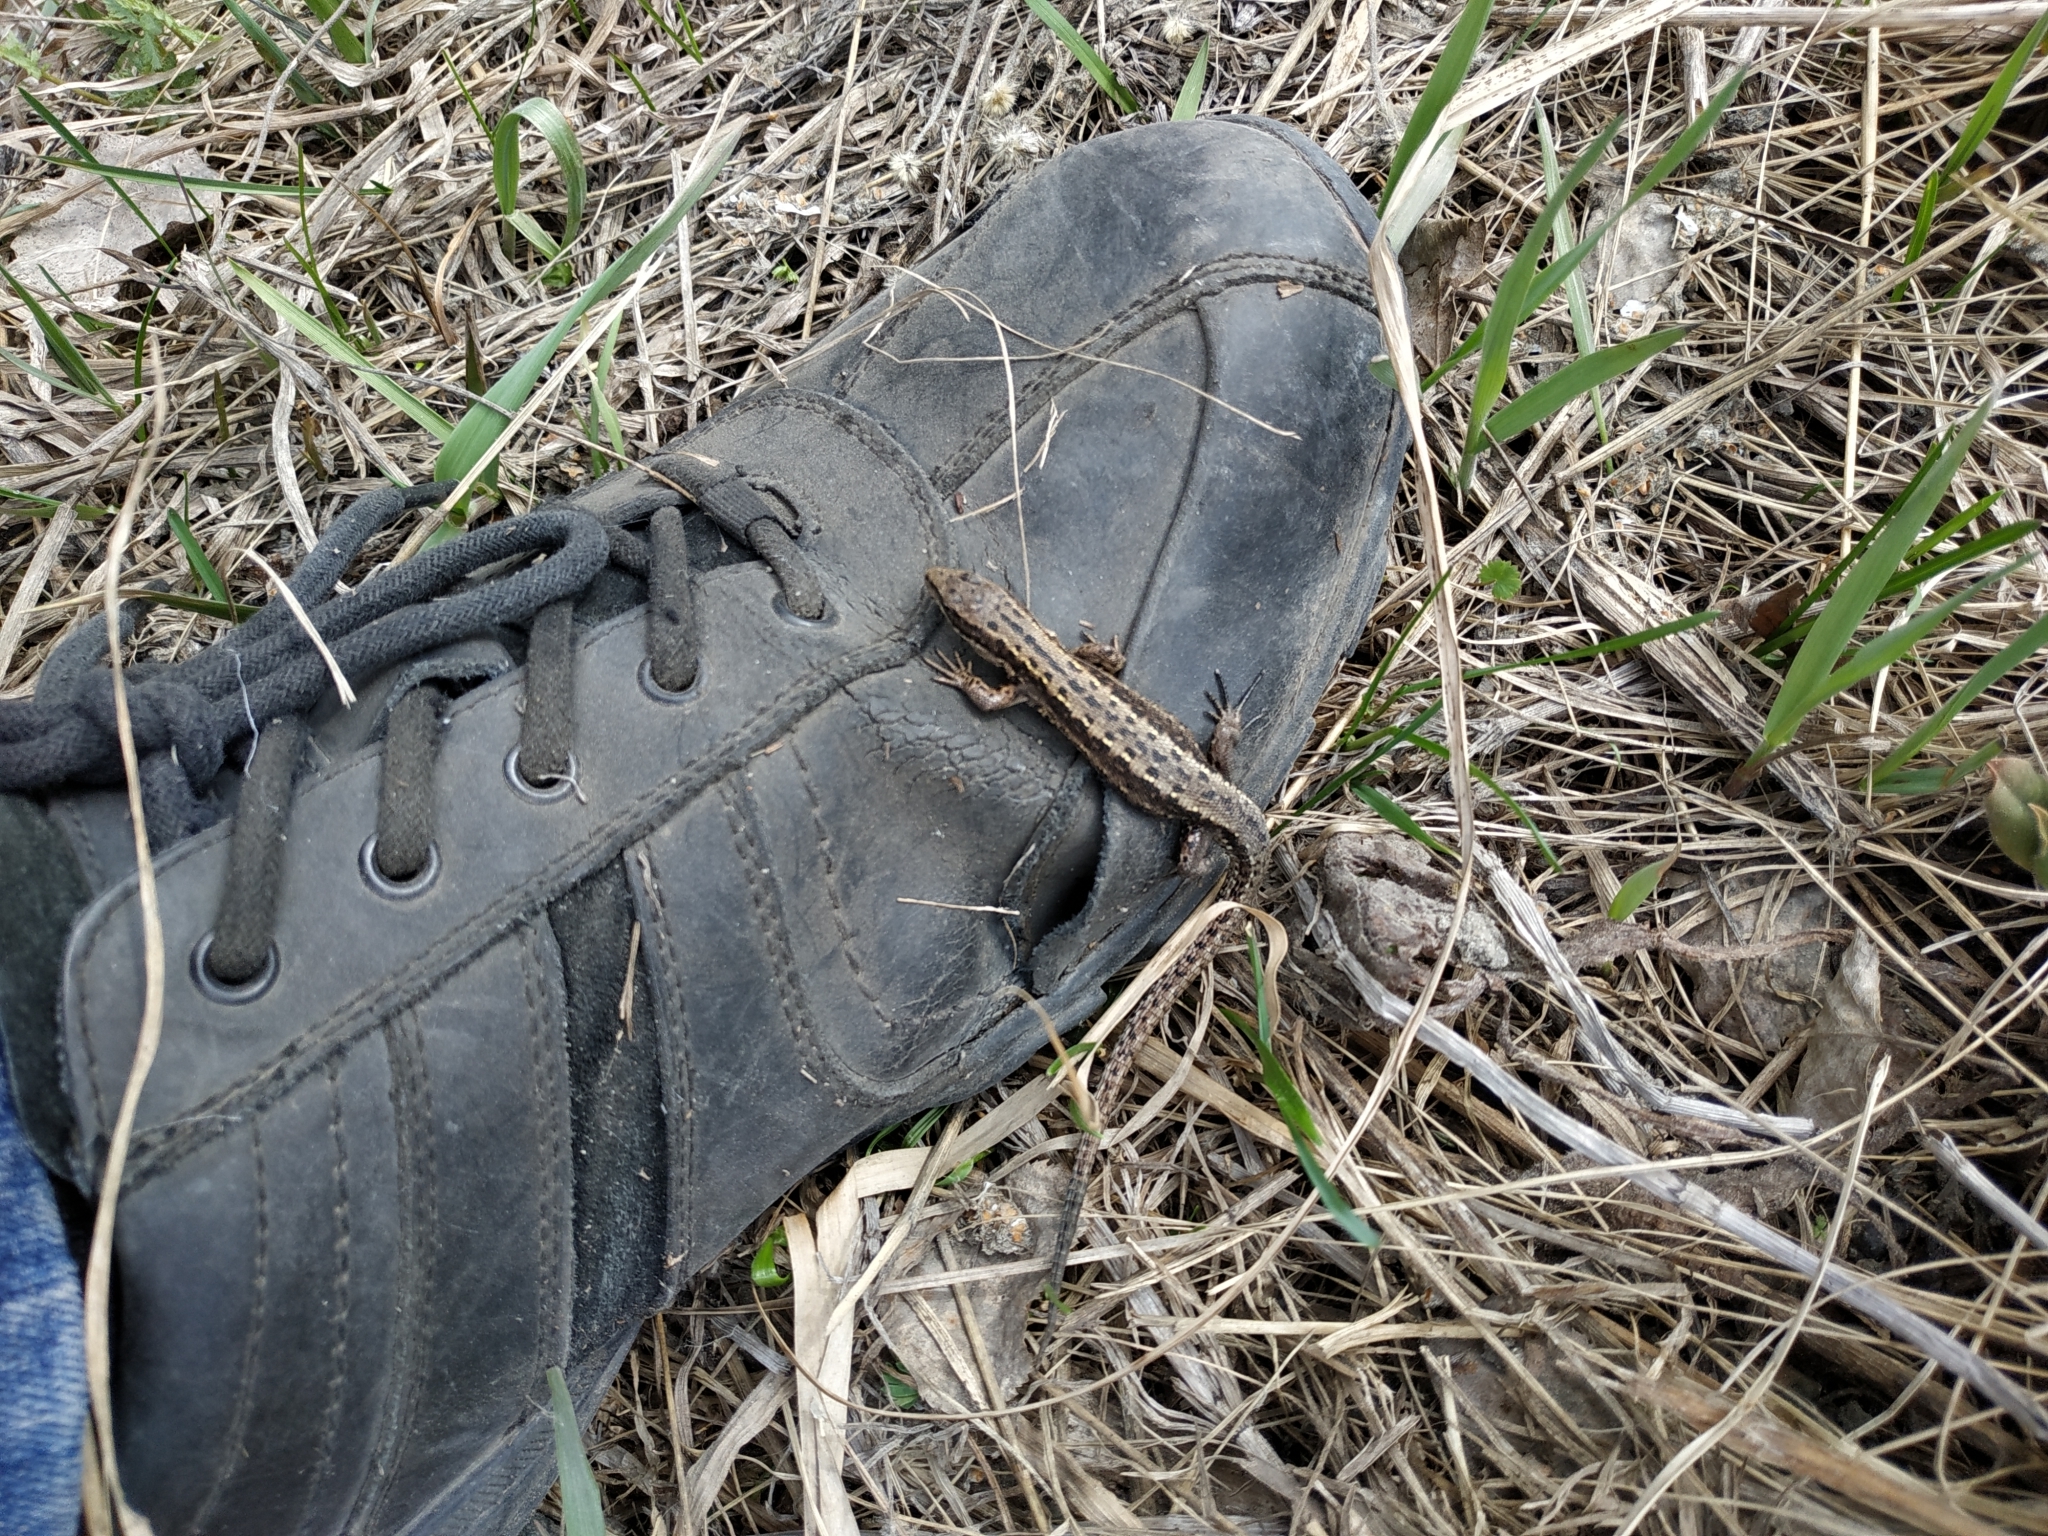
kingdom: Animalia
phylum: Chordata
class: Squamata
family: Lacertidae
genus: Zootoca
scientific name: Zootoca vivipara
